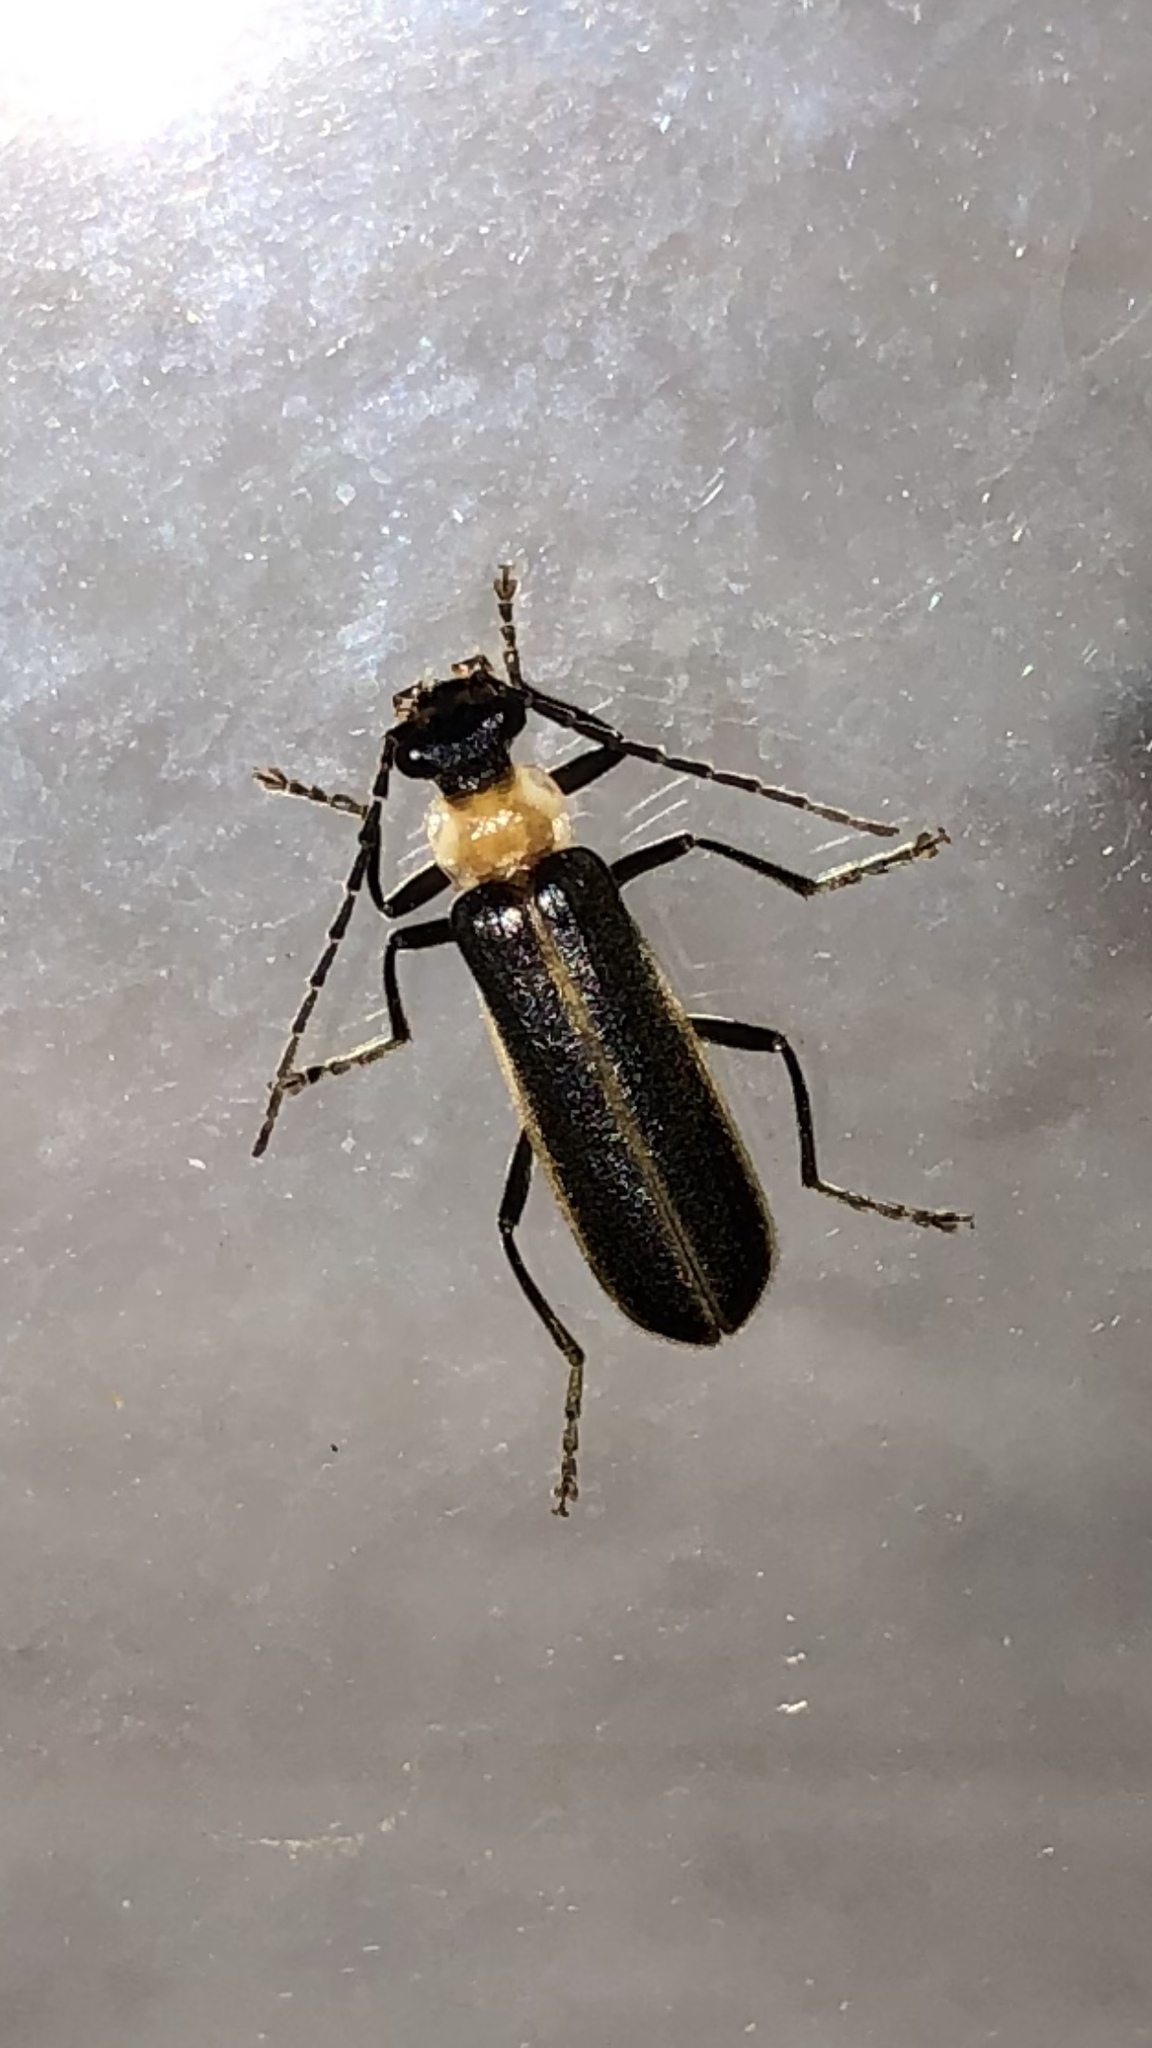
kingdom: Animalia
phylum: Arthropoda
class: Insecta
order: Coleoptera
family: Cantharidae
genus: Podabrus
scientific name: Podabrus flavicollis
